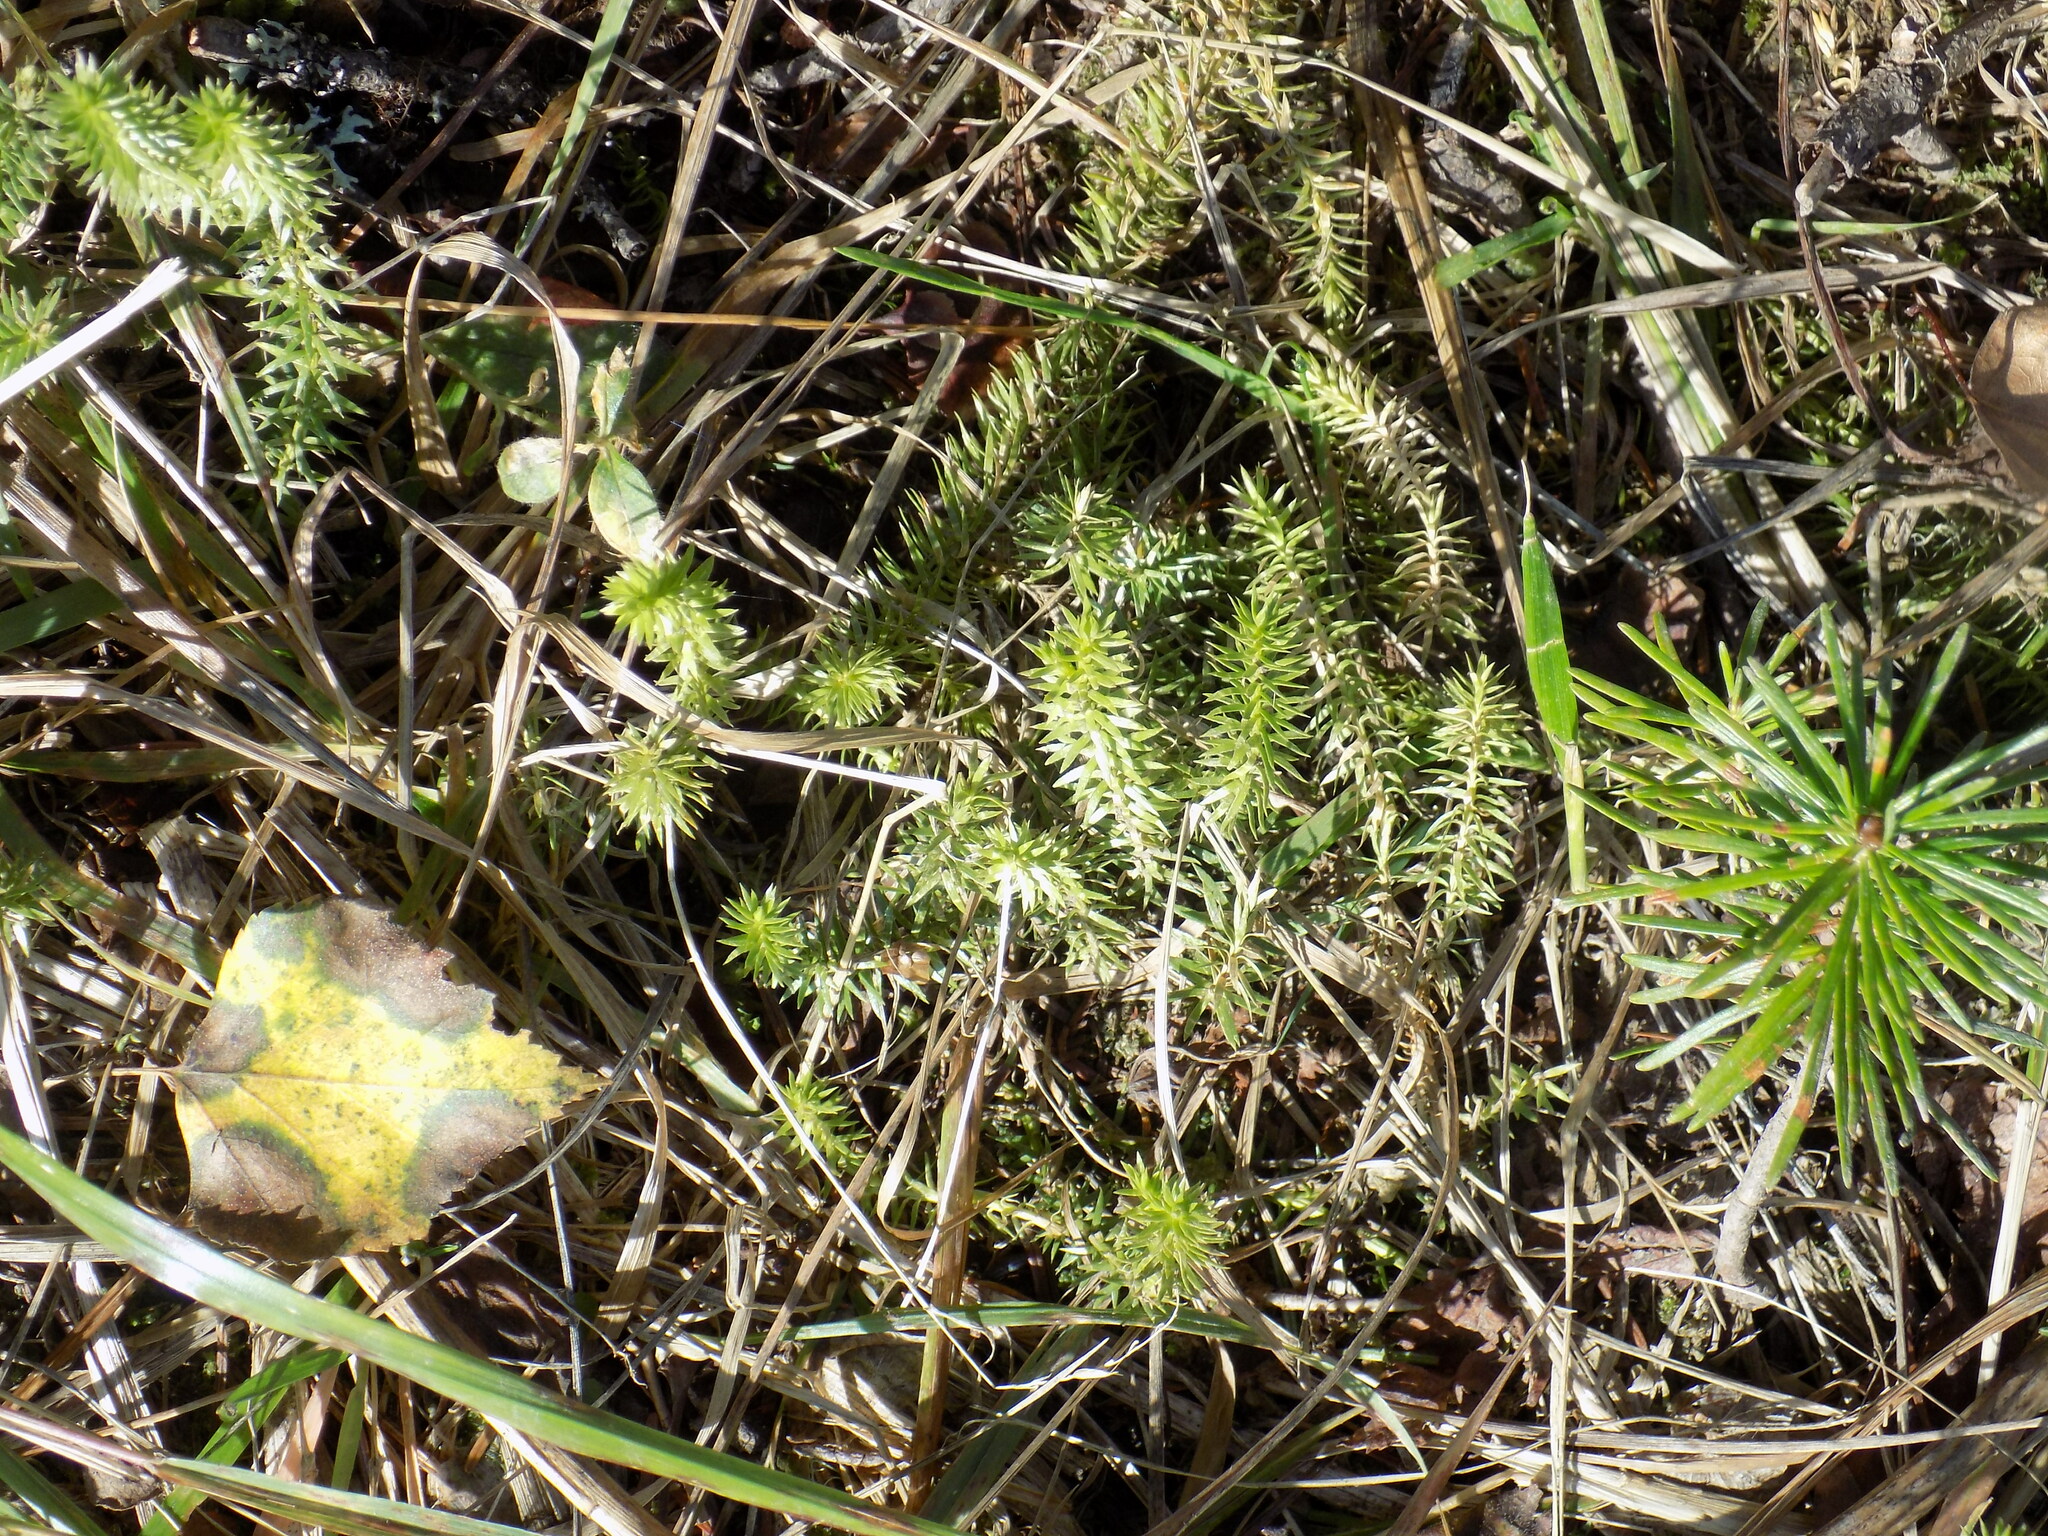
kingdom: Plantae
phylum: Tracheophyta
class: Lycopodiopsida
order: Lycopodiales
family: Lycopodiaceae
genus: Spinulum
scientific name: Spinulum annotinum
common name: Interrupted club-moss
